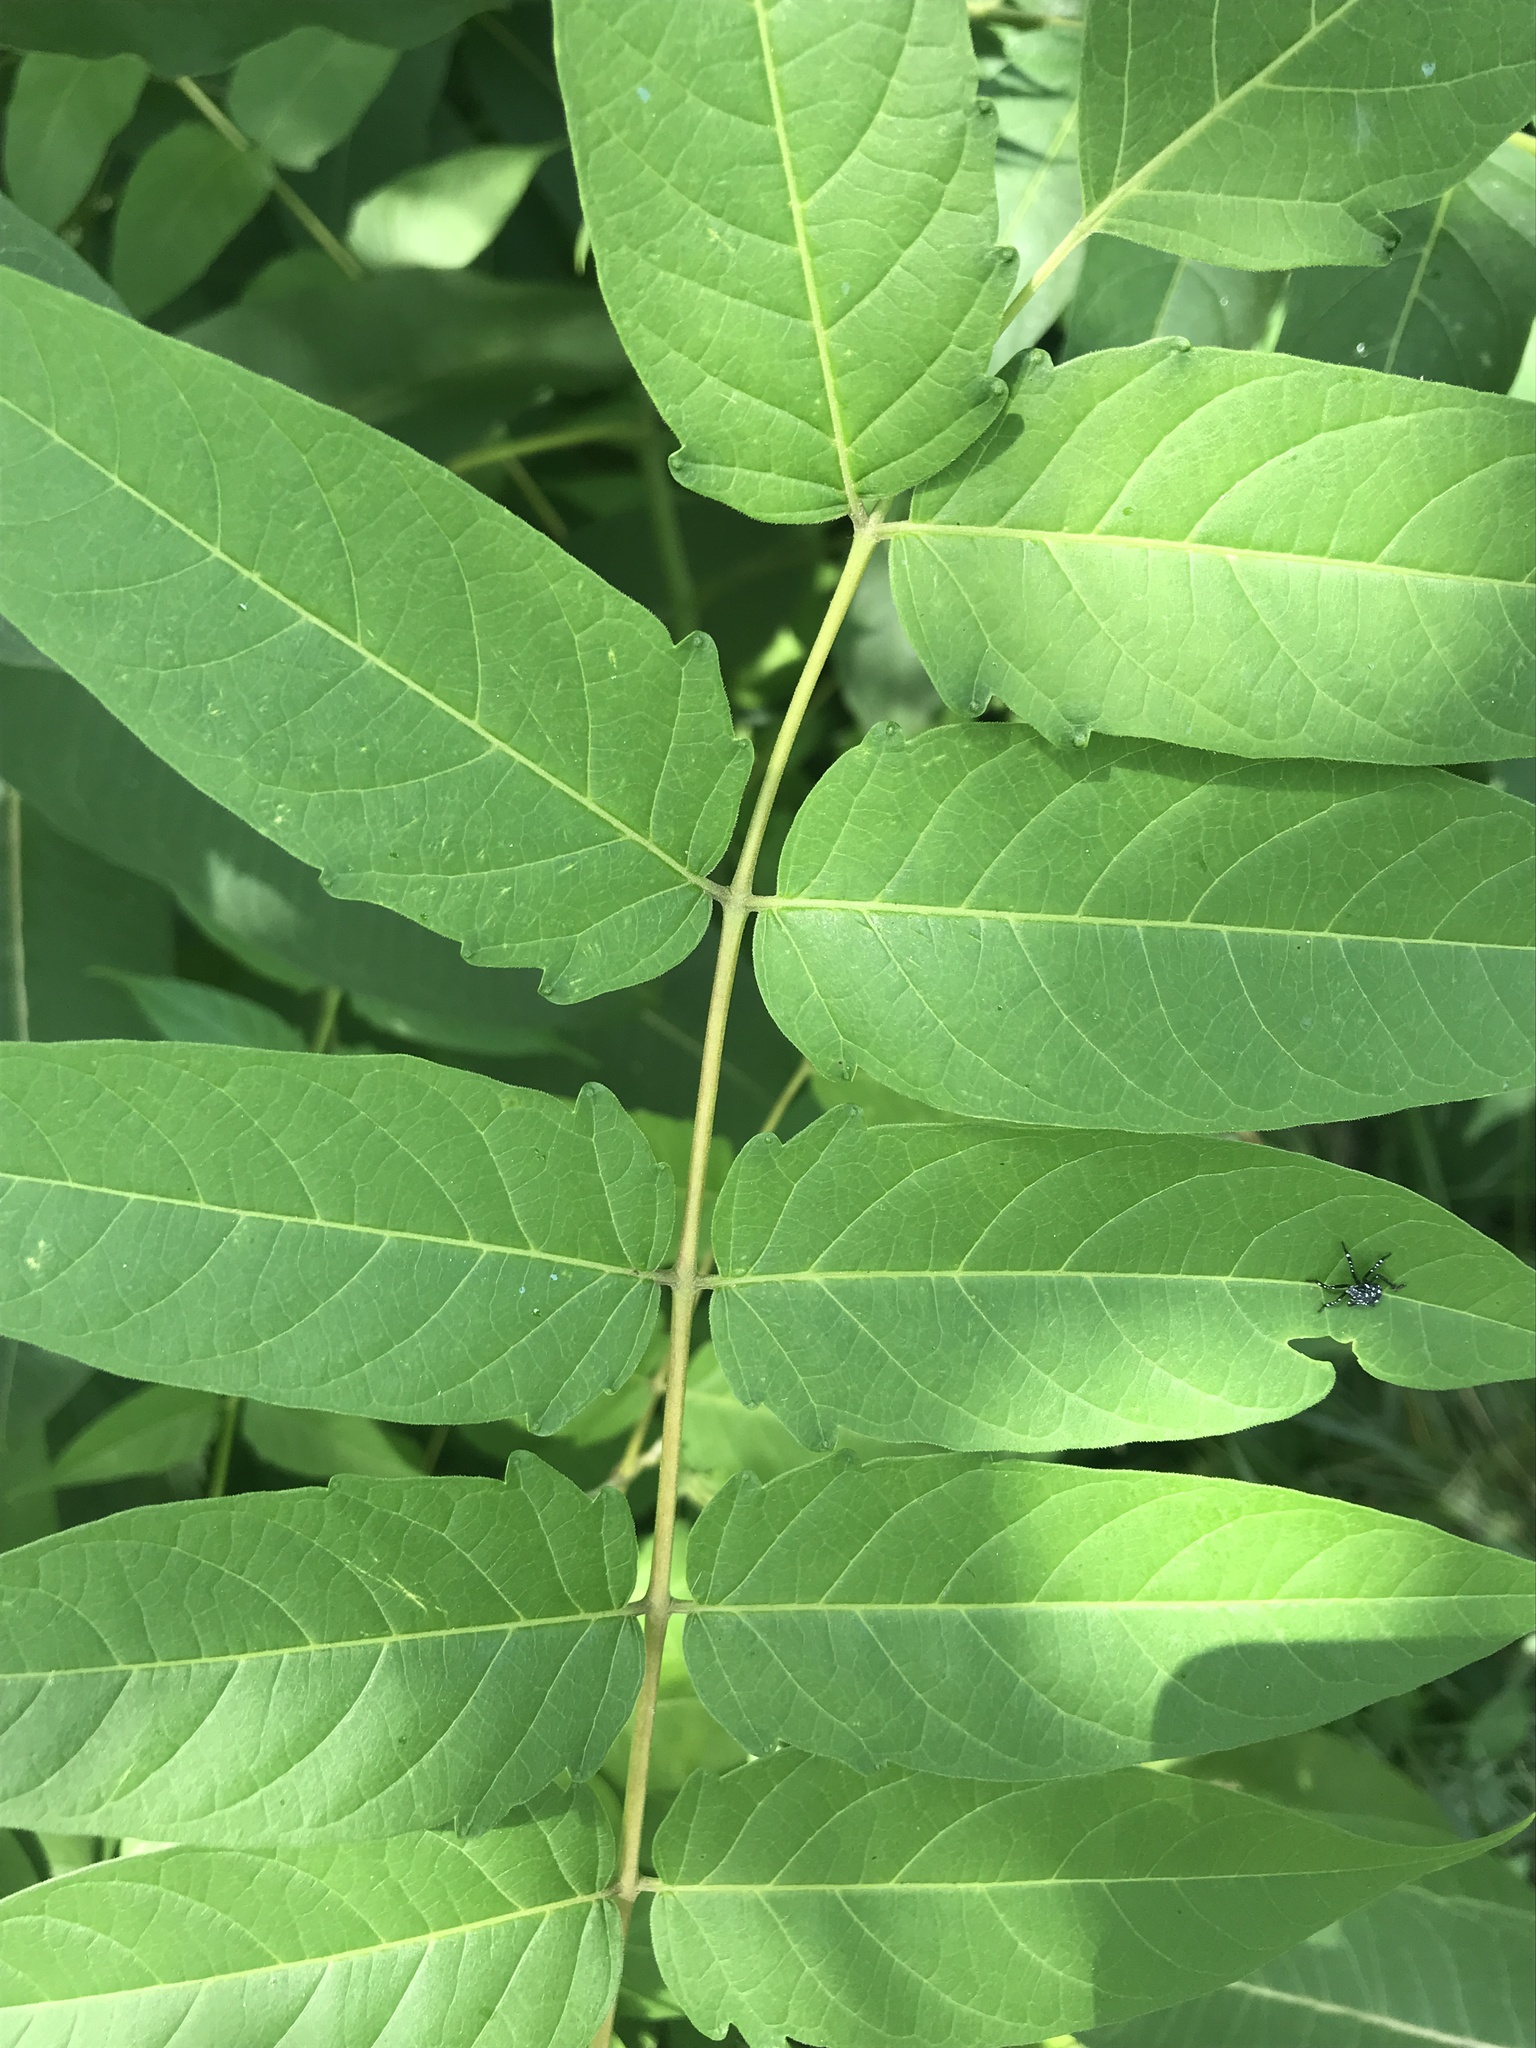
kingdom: Plantae
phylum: Tracheophyta
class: Magnoliopsida
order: Sapindales
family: Simaroubaceae
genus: Ailanthus
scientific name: Ailanthus altissima
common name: Tree-of-heaven
